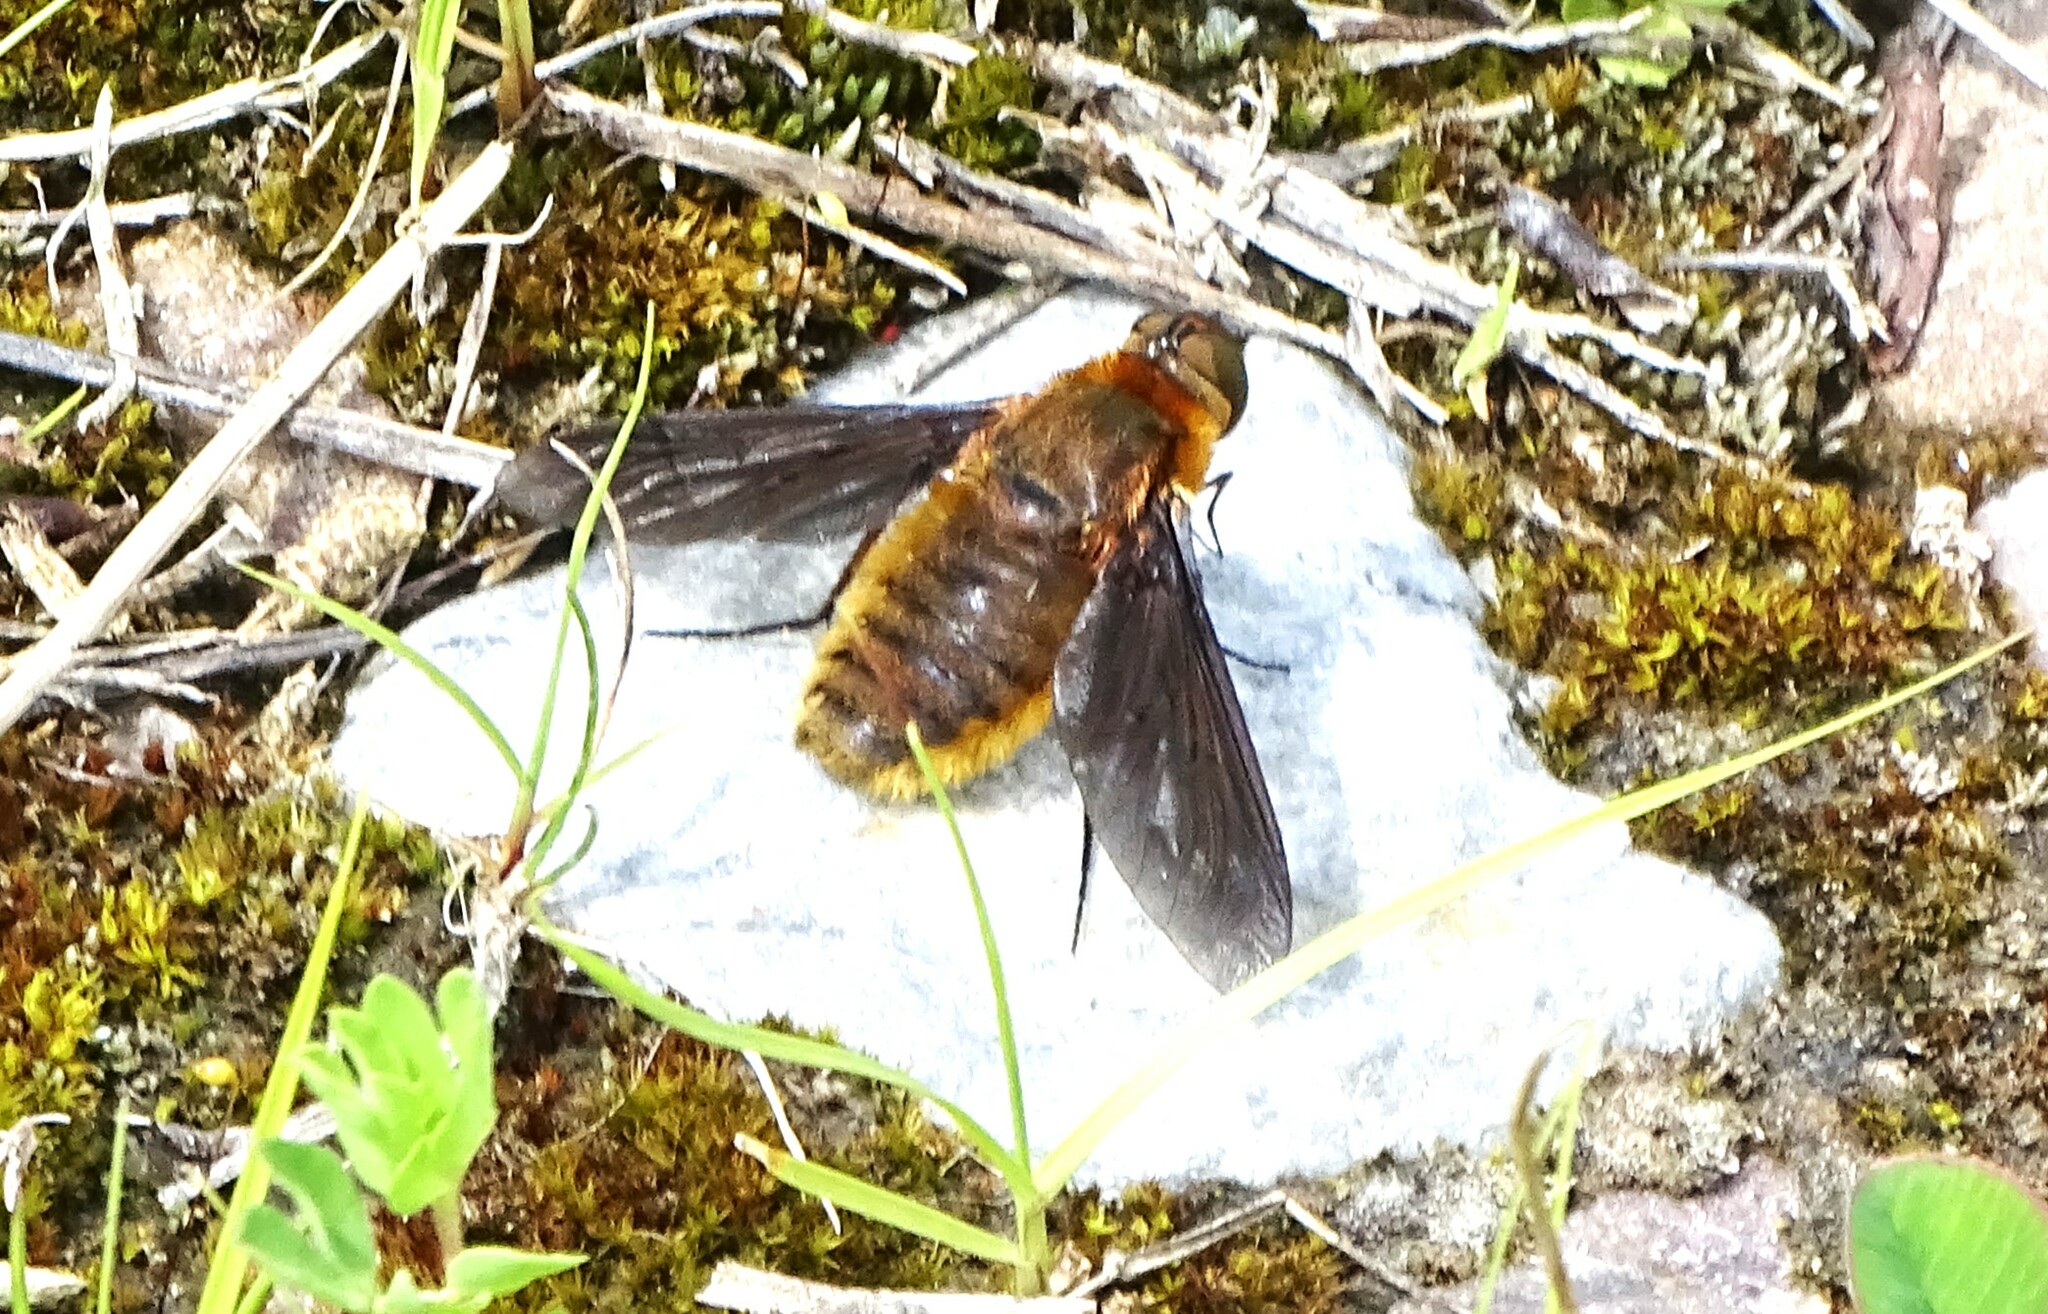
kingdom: Animalia
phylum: Arthropoda
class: Insecta
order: Diptera
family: Bombyliidae
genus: Poecilanthrax
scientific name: Poecilanthrax tegminipennis
